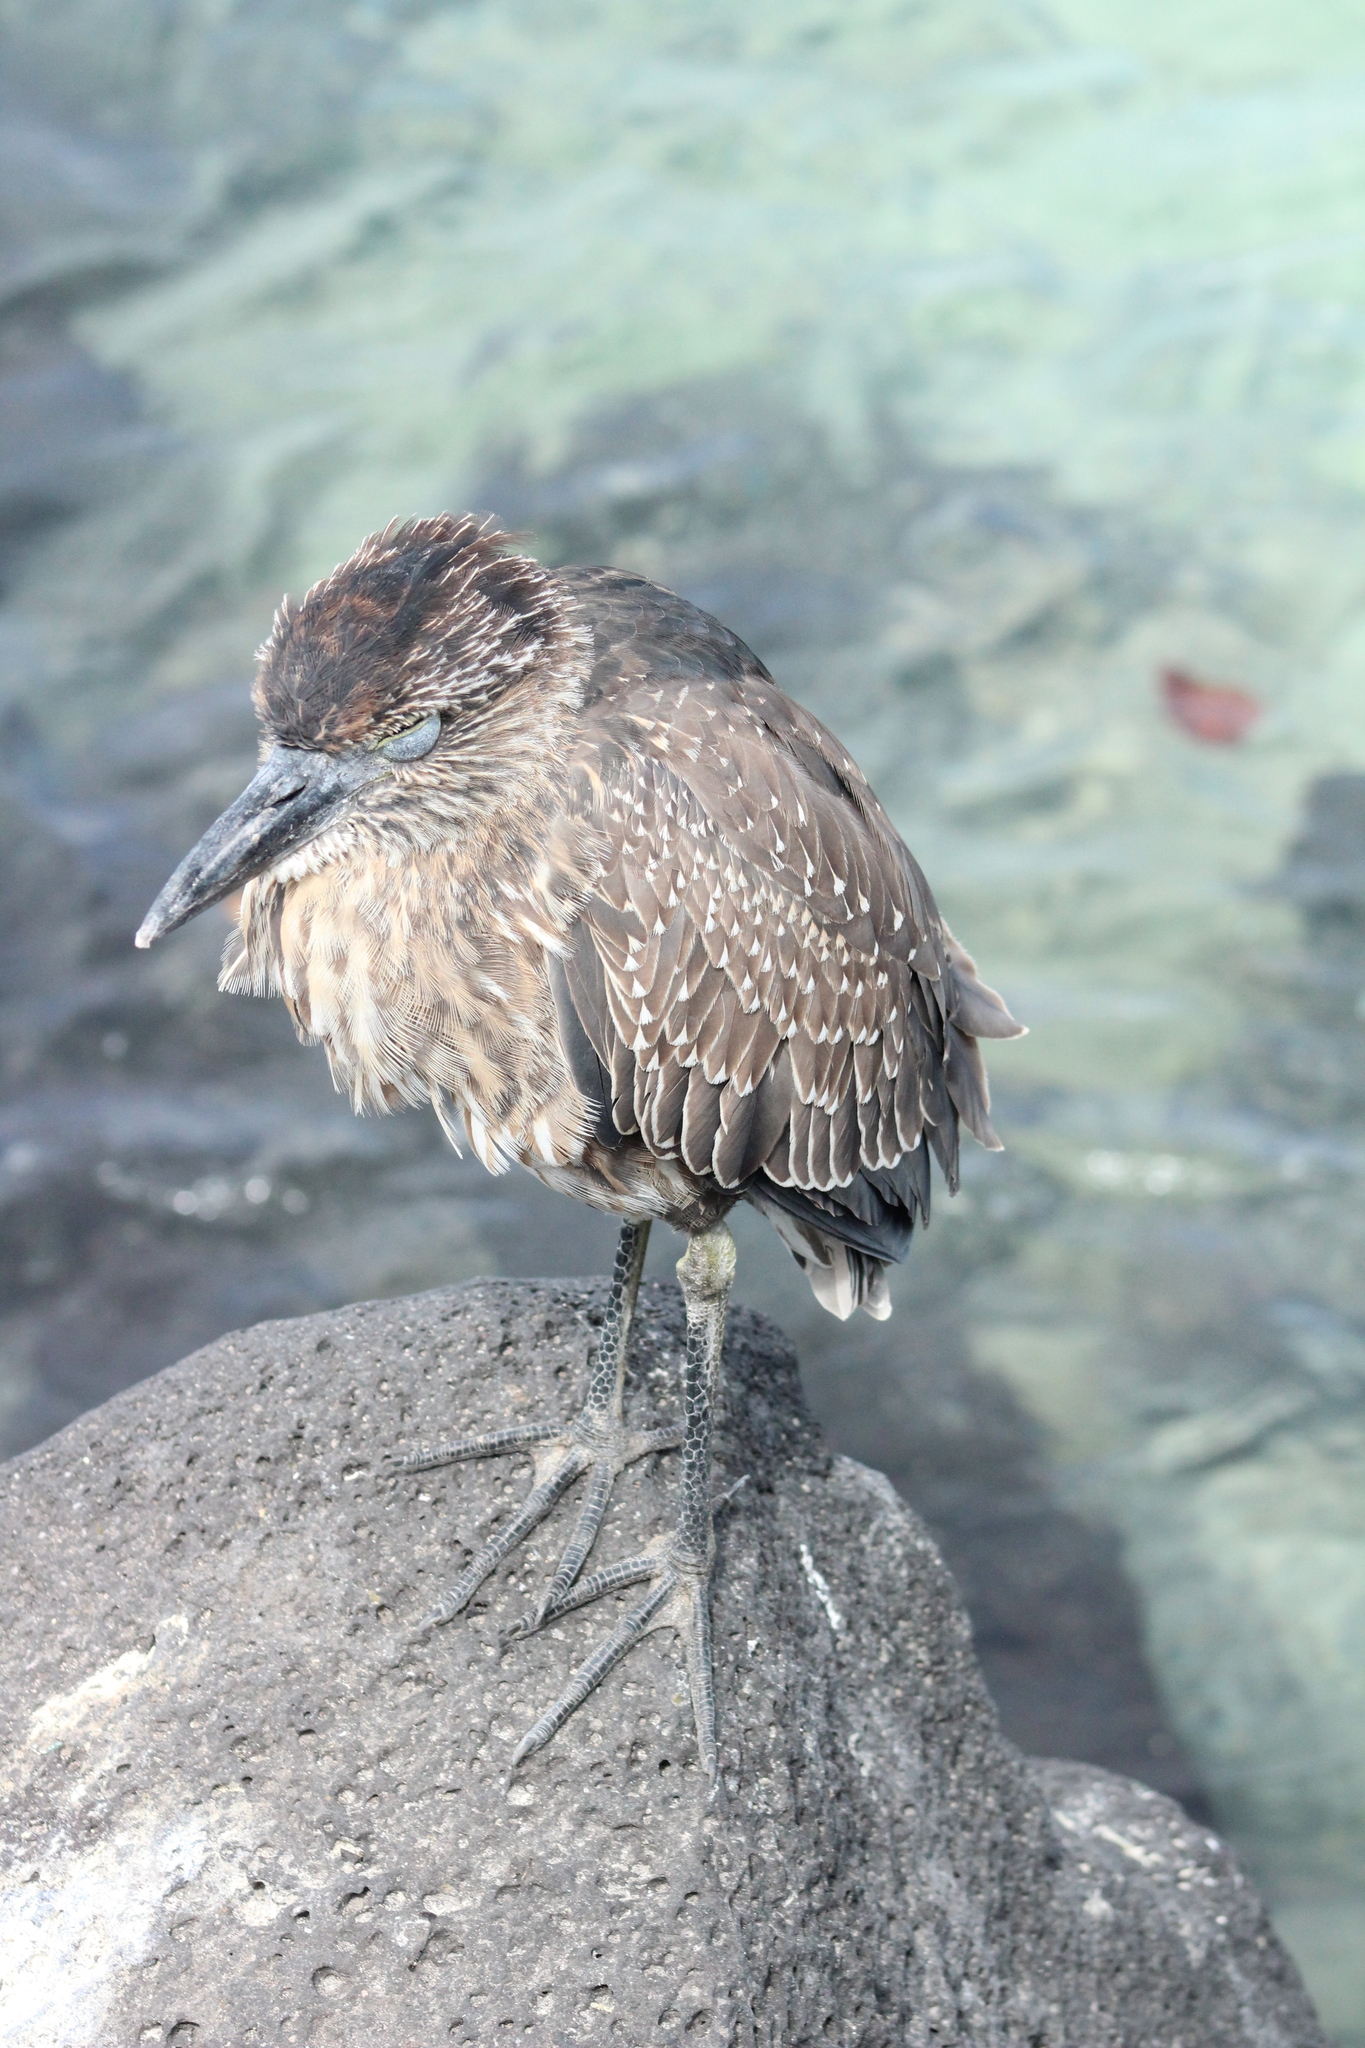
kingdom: Animalia
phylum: Chordata
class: Aves
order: Pelecaniformes
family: Ardeidae
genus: Nyctanassa
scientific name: Nyctanassa violacea
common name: Yellow-crowned night heron
